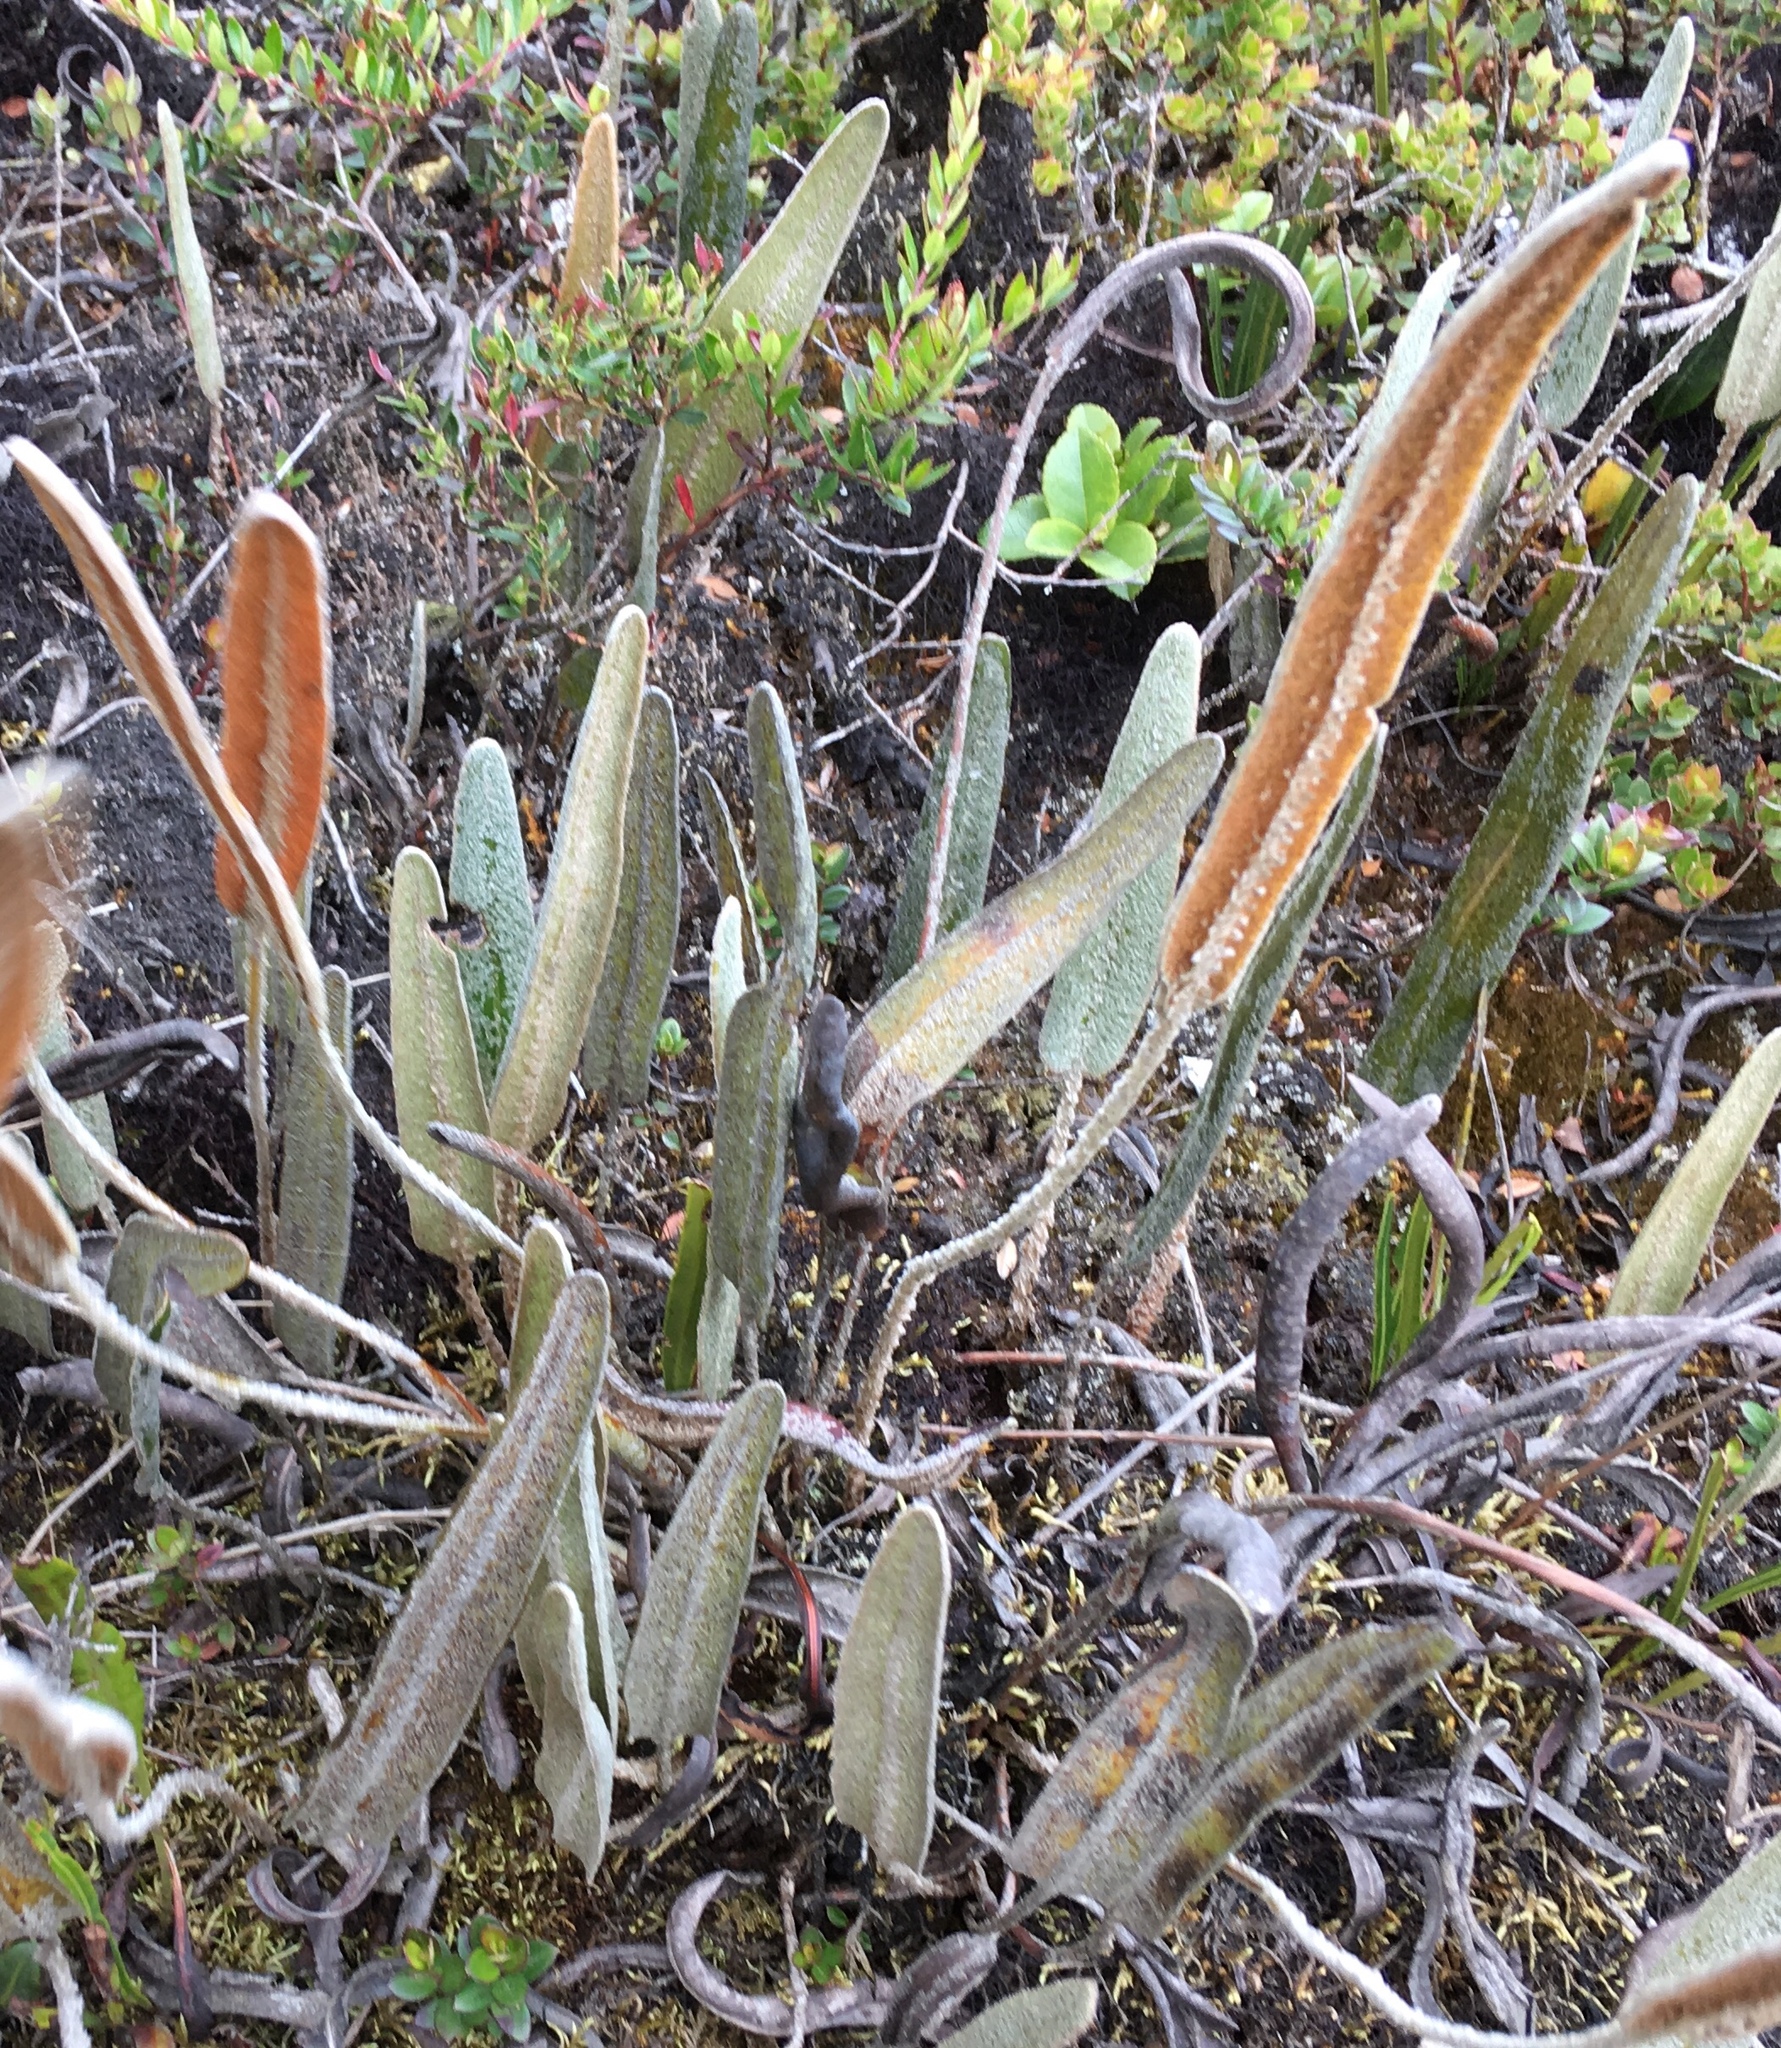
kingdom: Plantae
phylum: Tracheophyta
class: Polypodiopsida
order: Polypodiales
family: Polypodiaceae
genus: Pleopeltis
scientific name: Pleopeltis polylepis
